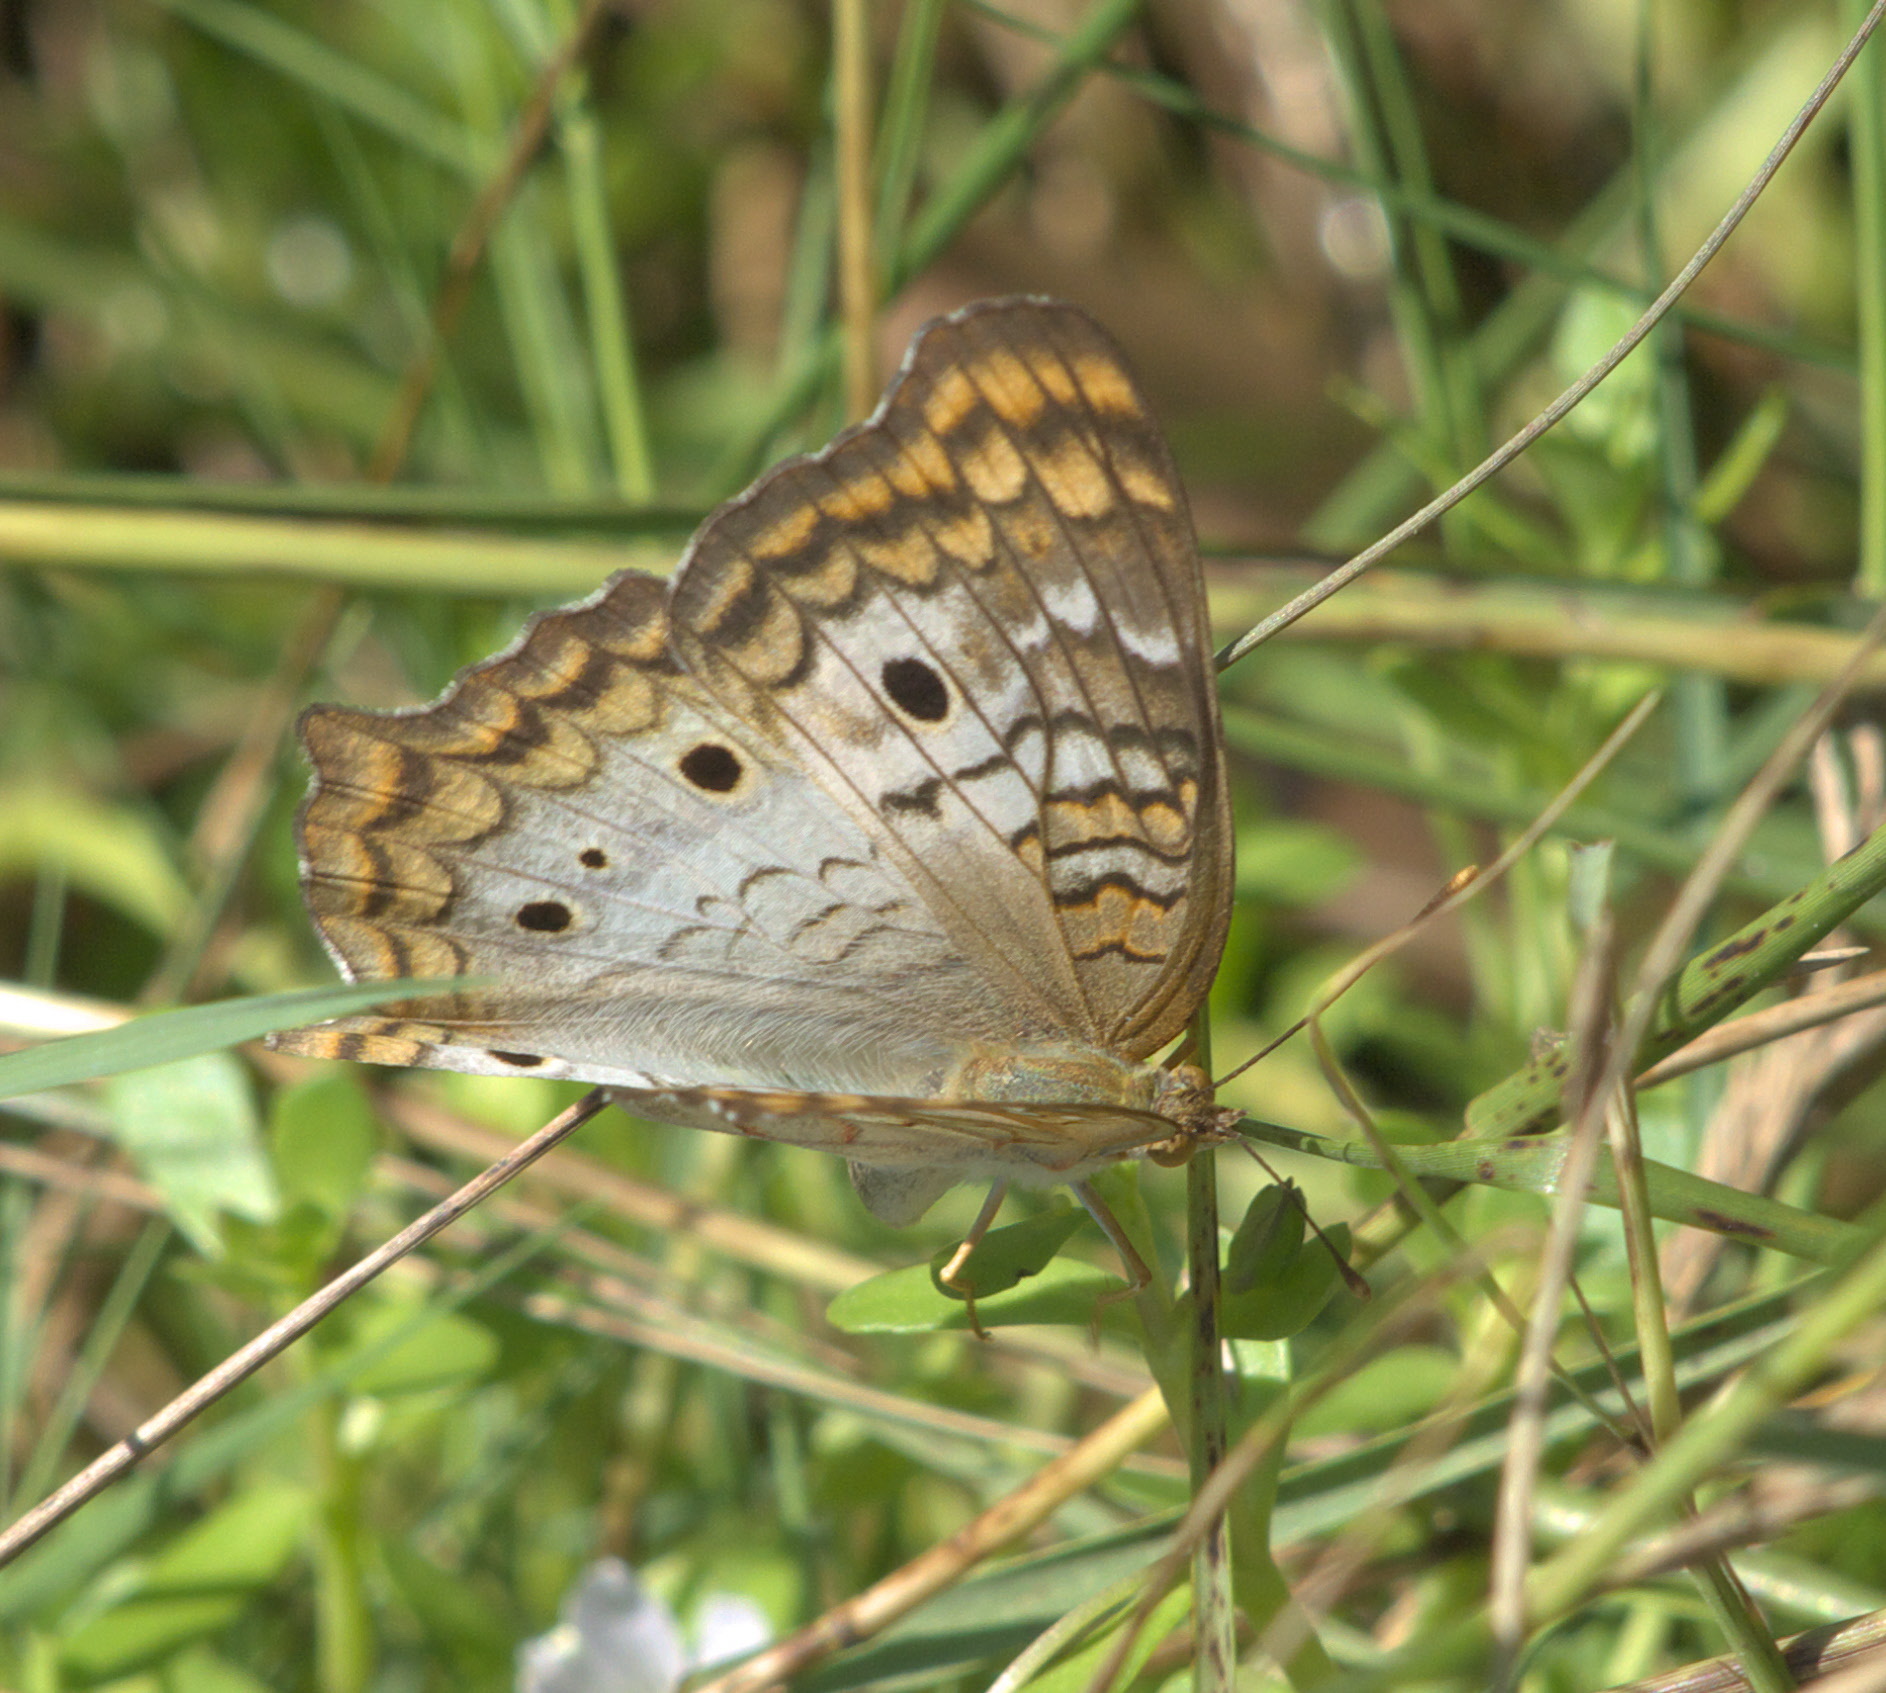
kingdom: Animalia
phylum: Arthropoda
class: Insecta
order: Lepidoptera
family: Nymphalidae
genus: Anartia
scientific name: Anartia jatrophae
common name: White peacock
